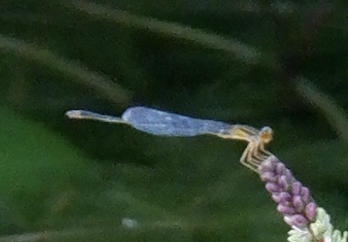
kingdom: Animalia
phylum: Arthropoda
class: Insecta
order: Odonata
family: Coenagrionidae
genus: Enallagma
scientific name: Enallagma signatum
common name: Orange bluet
